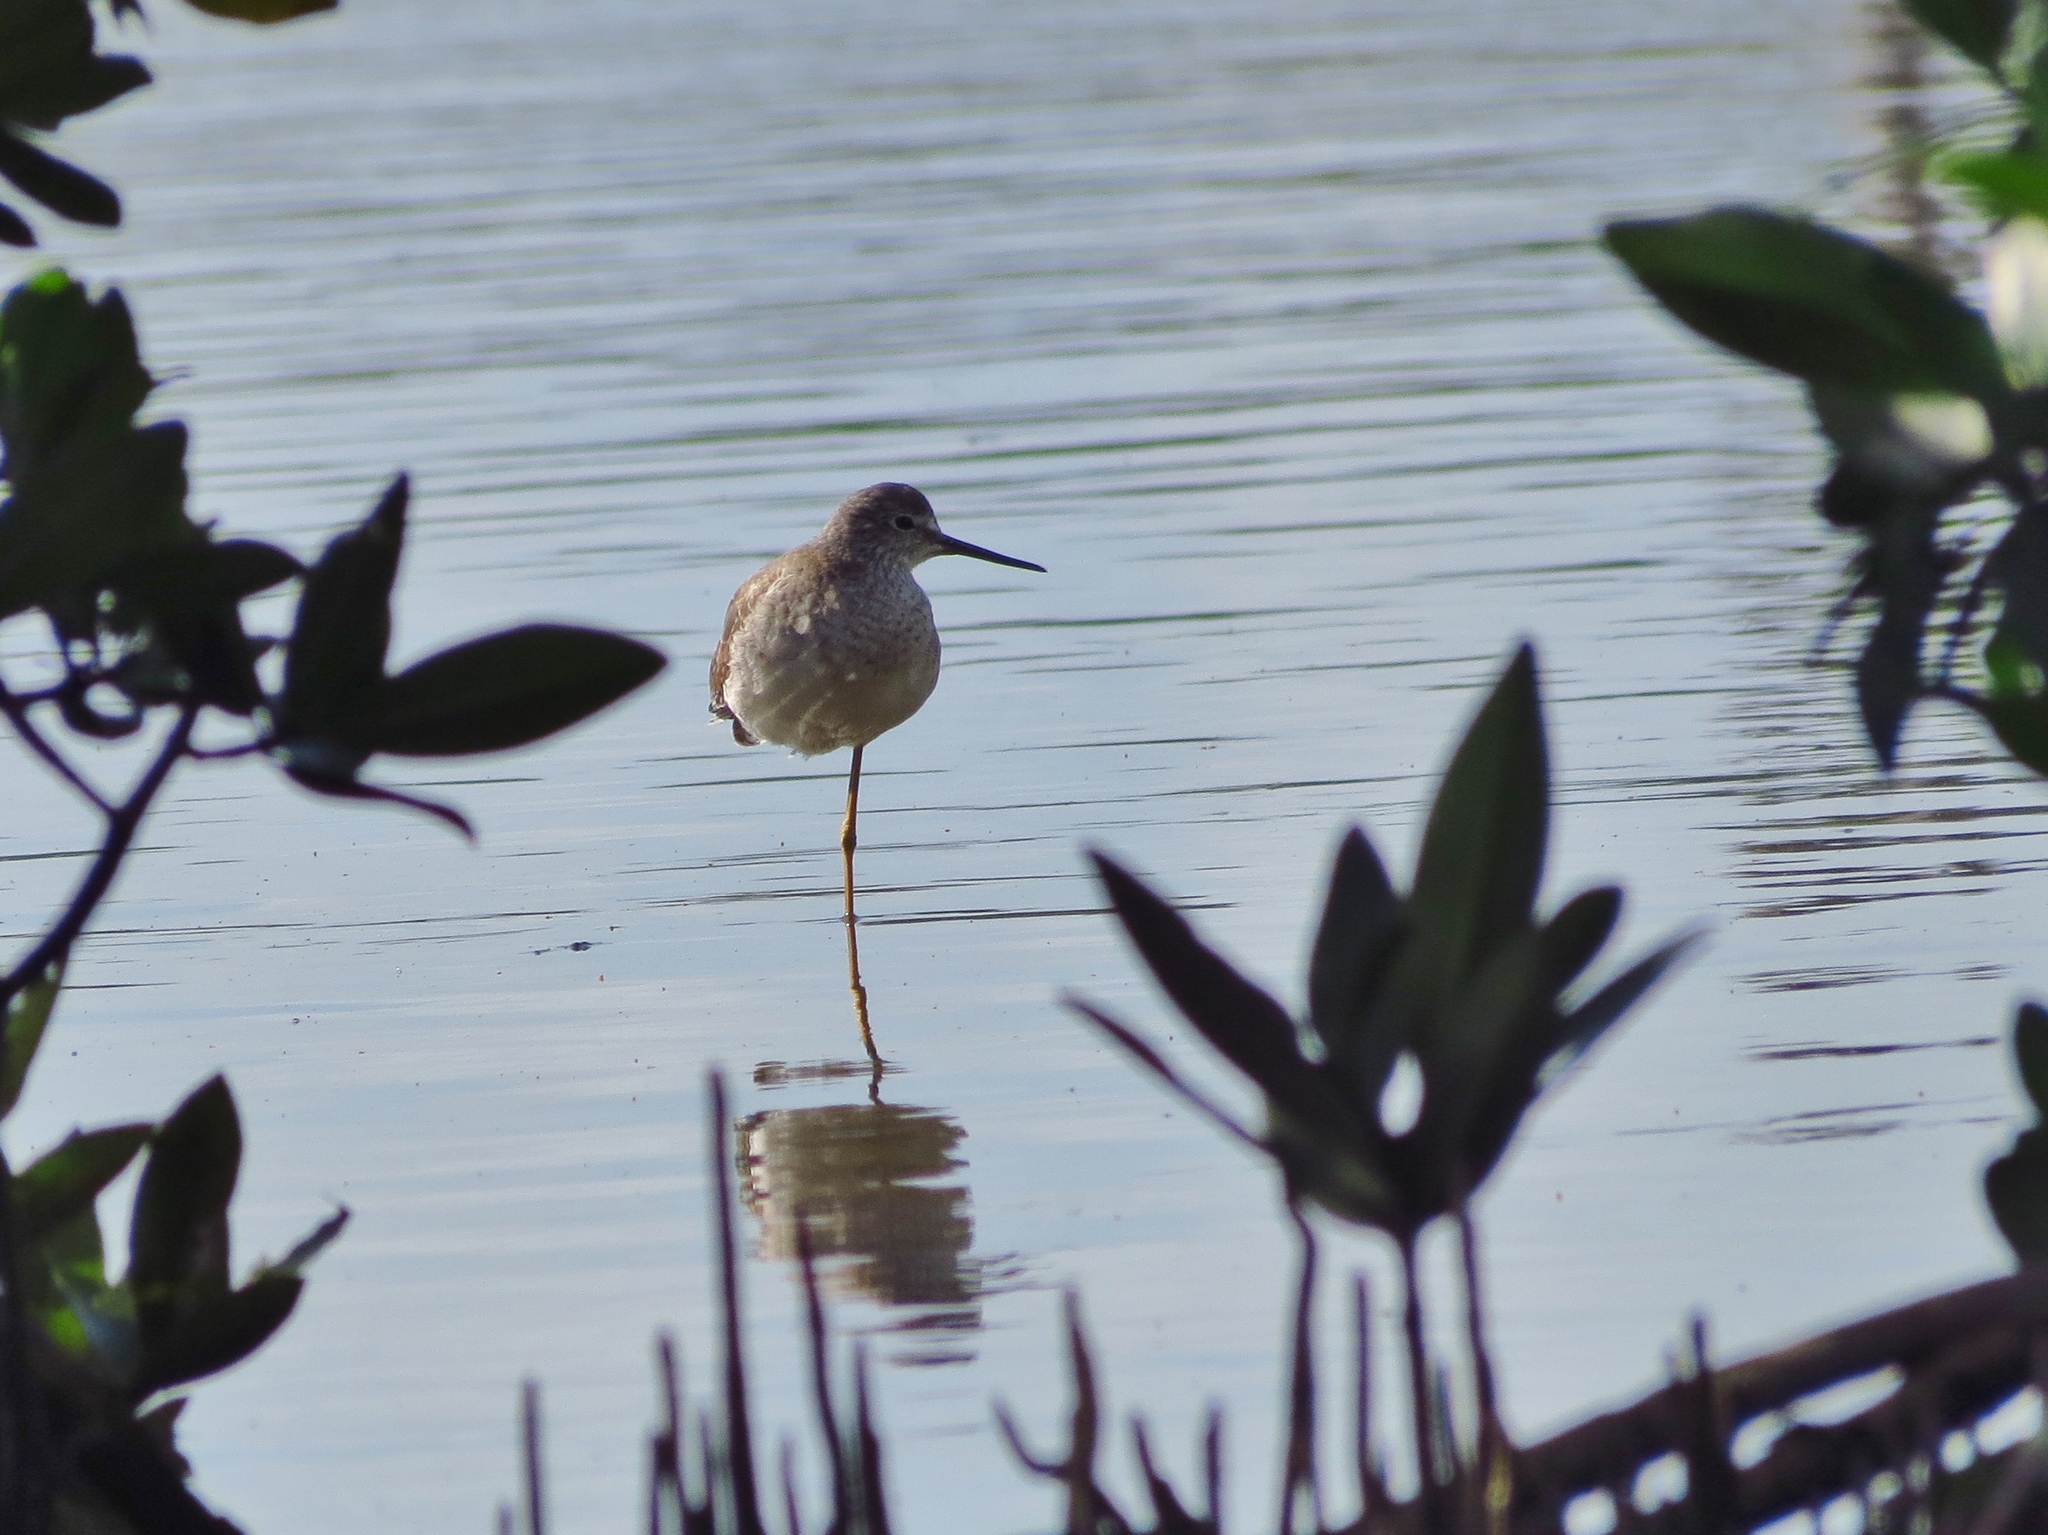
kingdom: Animalia
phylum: Chordata
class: Aves
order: Charadriiformes
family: Scolopacidae
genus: Tringa
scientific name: Tringa flavipes
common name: Lesser yellowlegs
